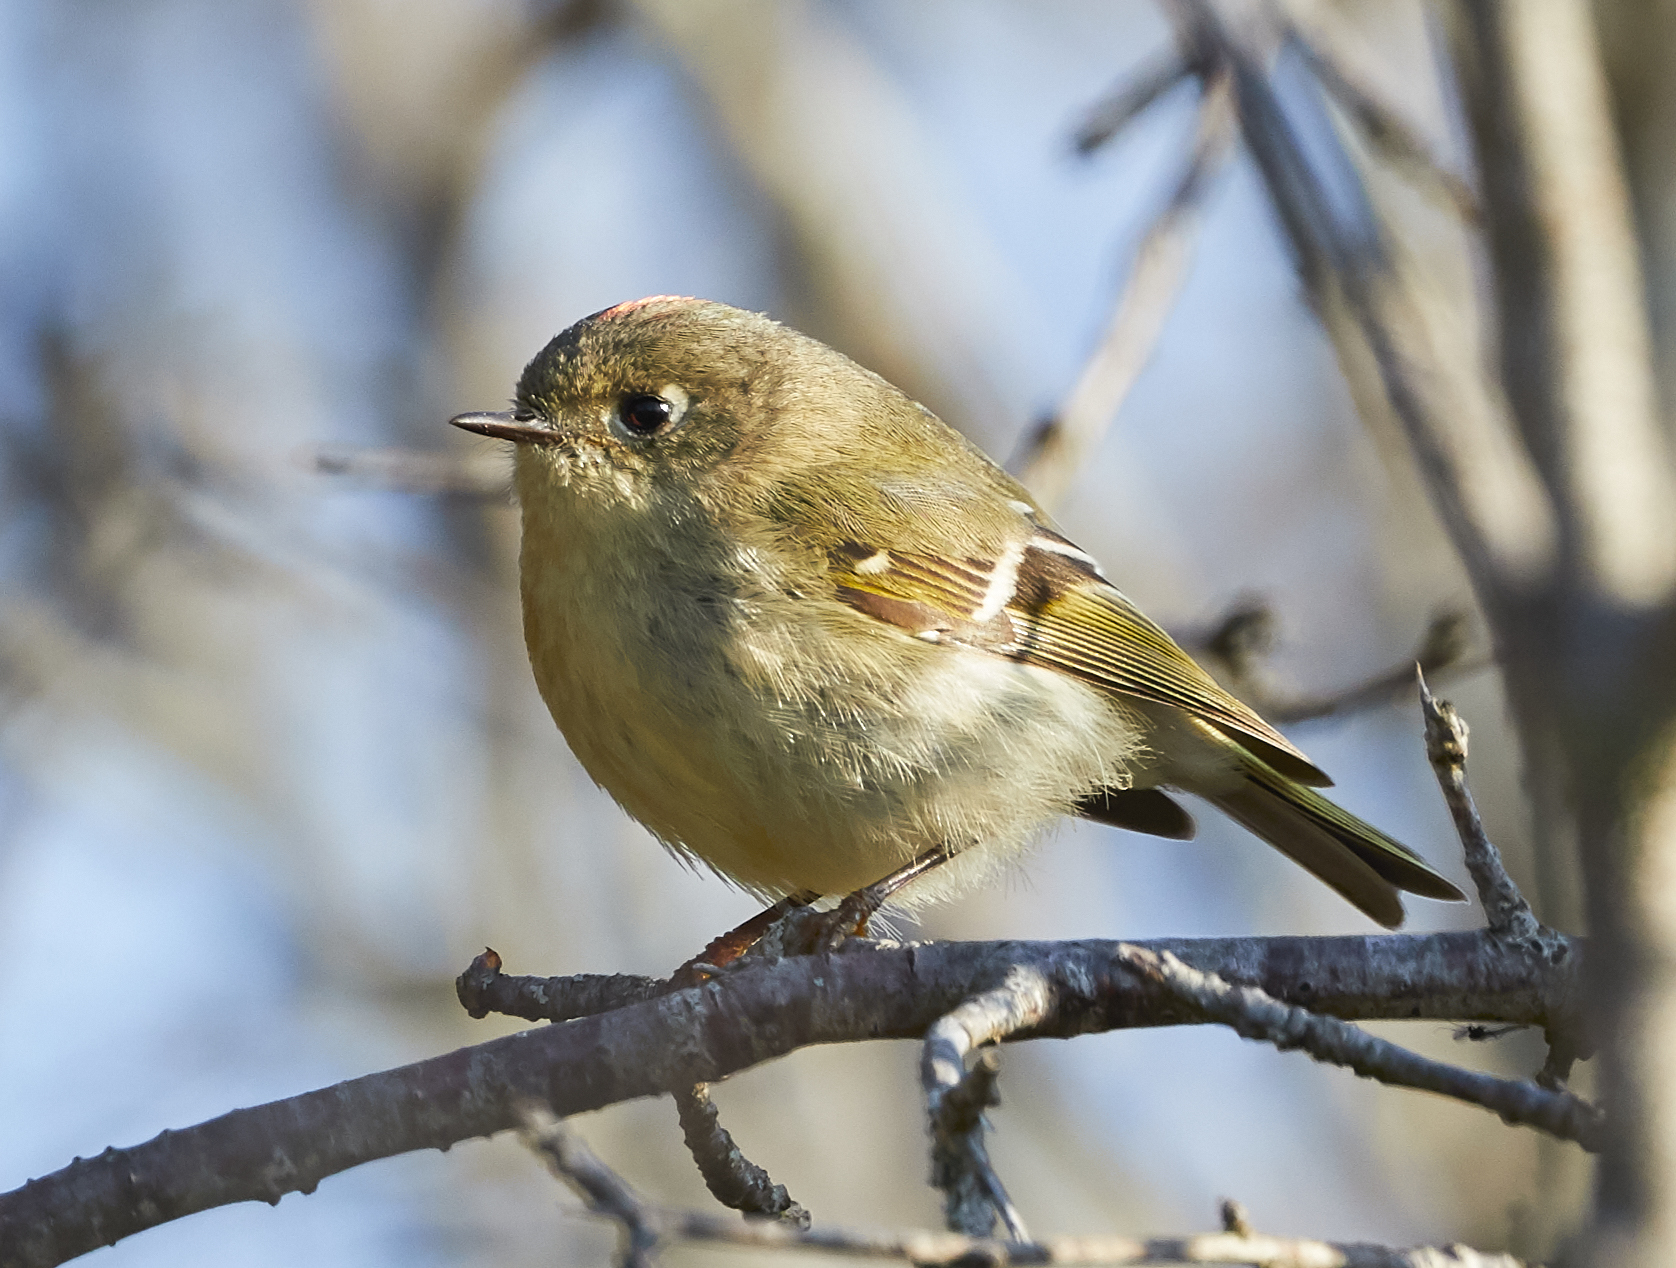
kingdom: Animalia
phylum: Chordata
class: Aves
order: Passeriformes
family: Regulidae
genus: Regulus
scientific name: Regulus calendula
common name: Ruby-crowned kinglet
